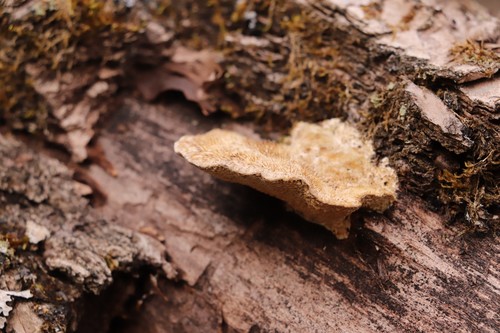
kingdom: Fungi
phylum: Basidiomycota
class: Agaricomycetes
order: Polyporales
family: Polyporaceae
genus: Trametes
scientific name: Trametes trogii
